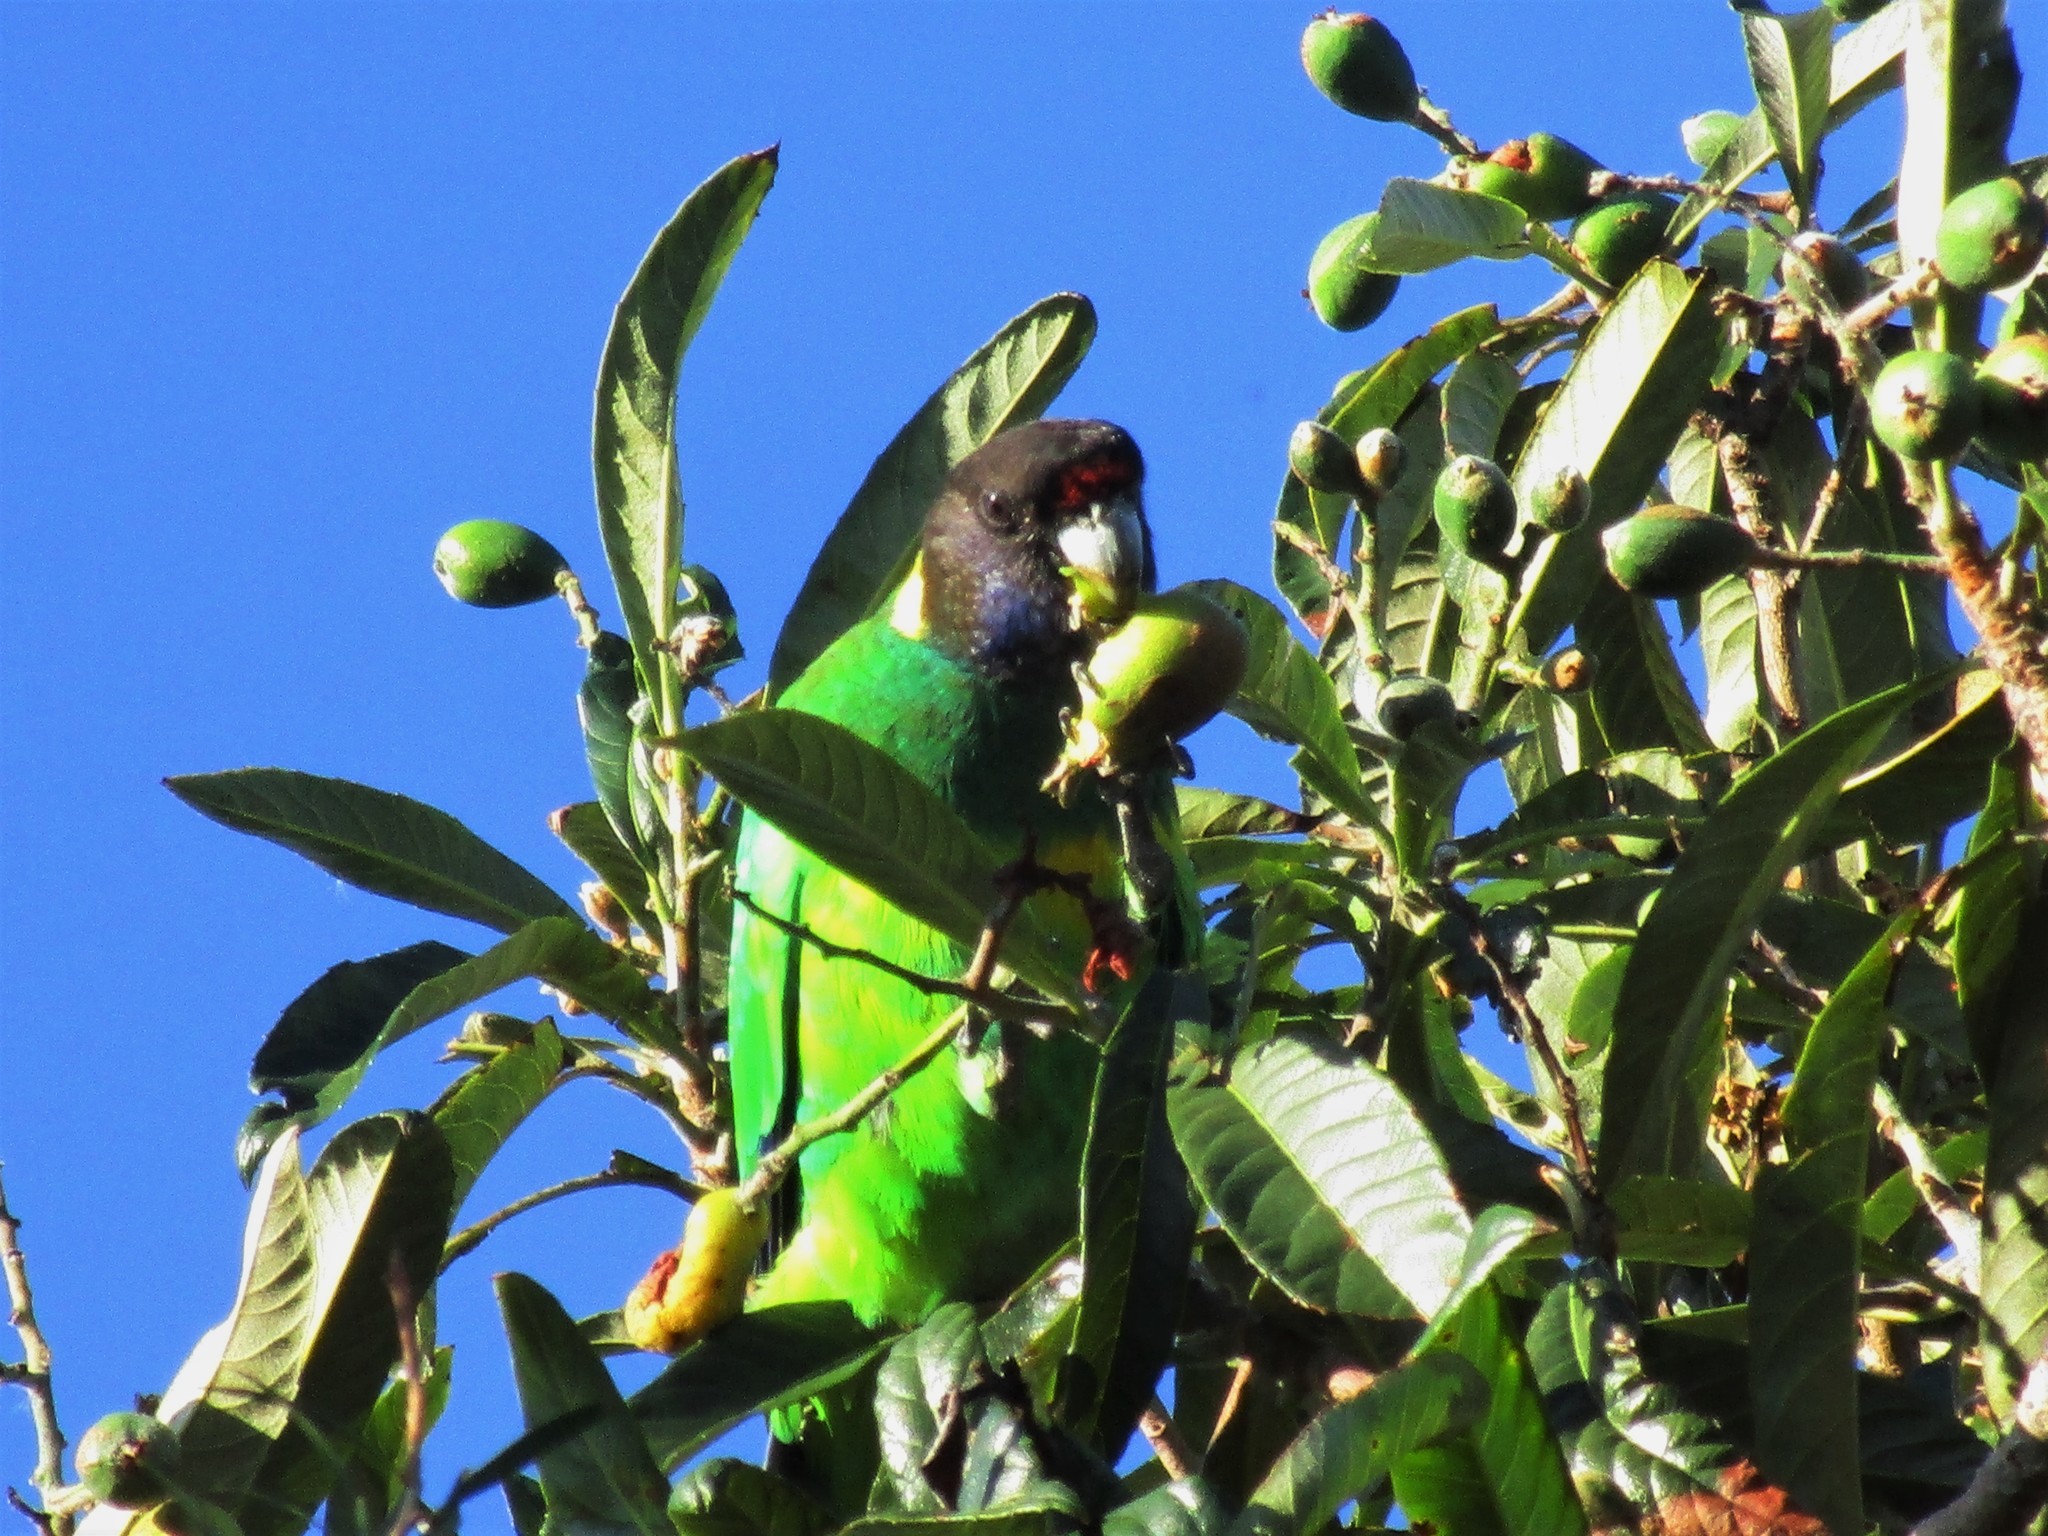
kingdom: Animalia
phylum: Chordata
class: Aves
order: Psittaciformes
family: Psittacidae
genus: Barnardius
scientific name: Barnardius zonarius
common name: Australian ringneck
